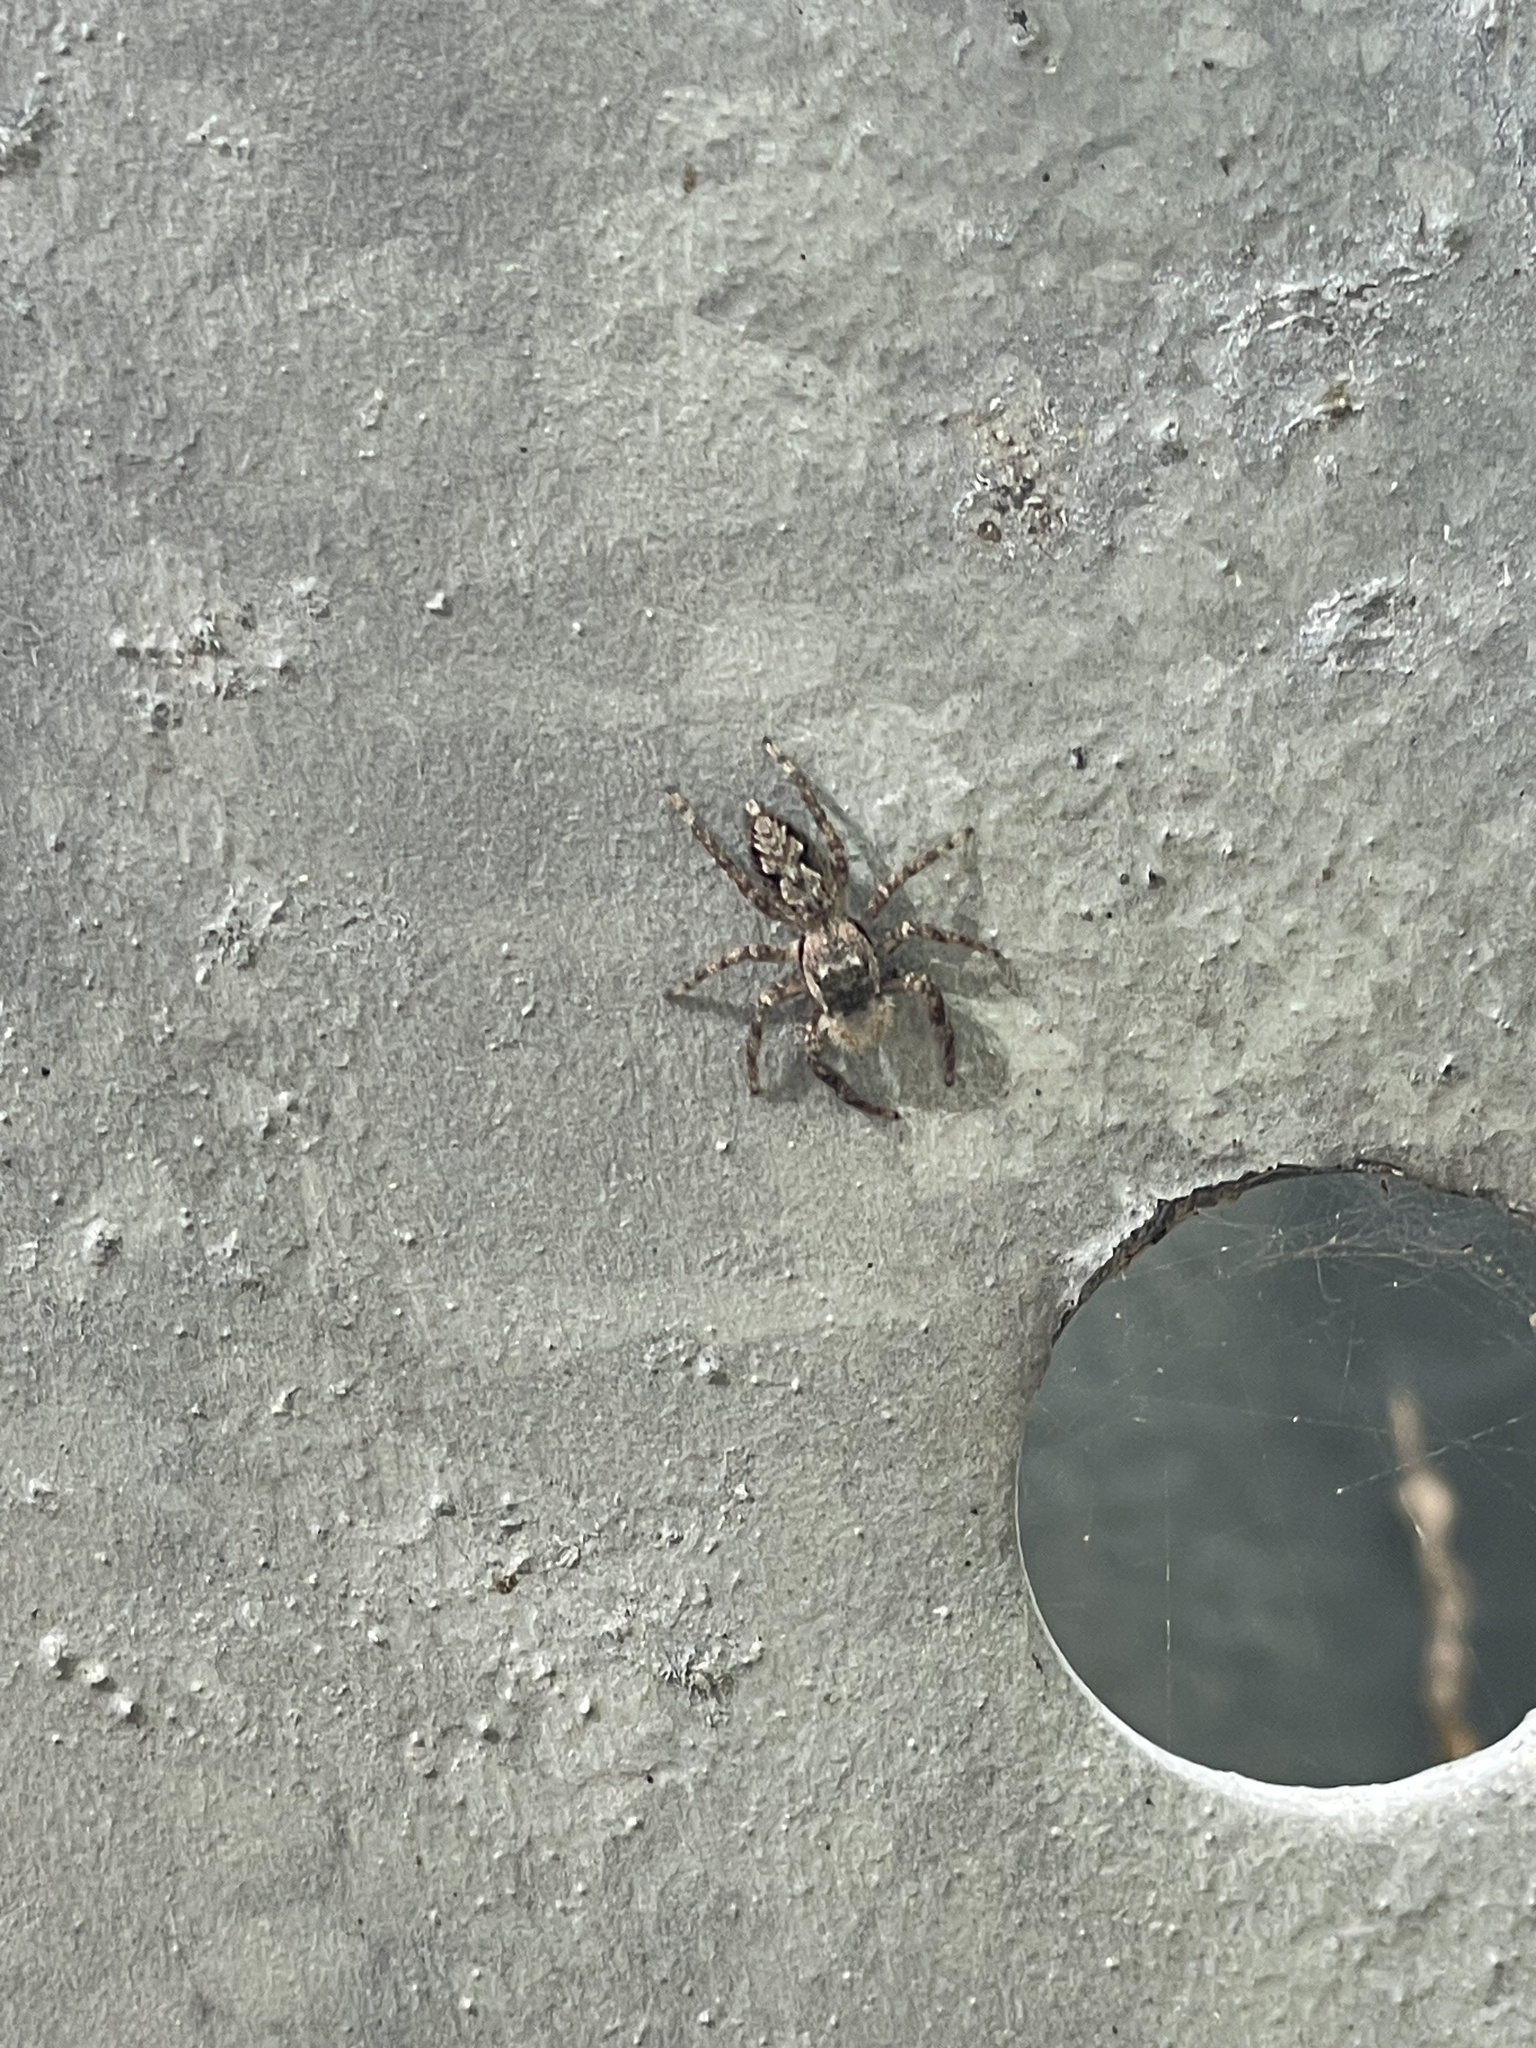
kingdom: Animalia
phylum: Arthropoda
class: Arachnida
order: Araneae
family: Salticidae
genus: Platycryptus
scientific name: Platycryptus undatus
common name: Tan jumping spider
